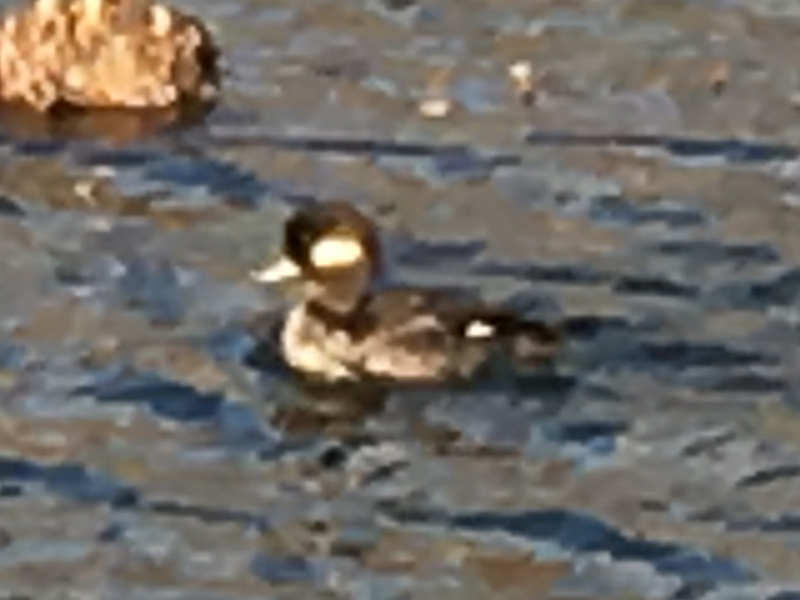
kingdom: Animalia
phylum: Chordata
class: Aves
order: Anseriformes
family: Anatidae
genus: Bucephala
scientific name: Bucephala albeola
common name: Bufflehead
